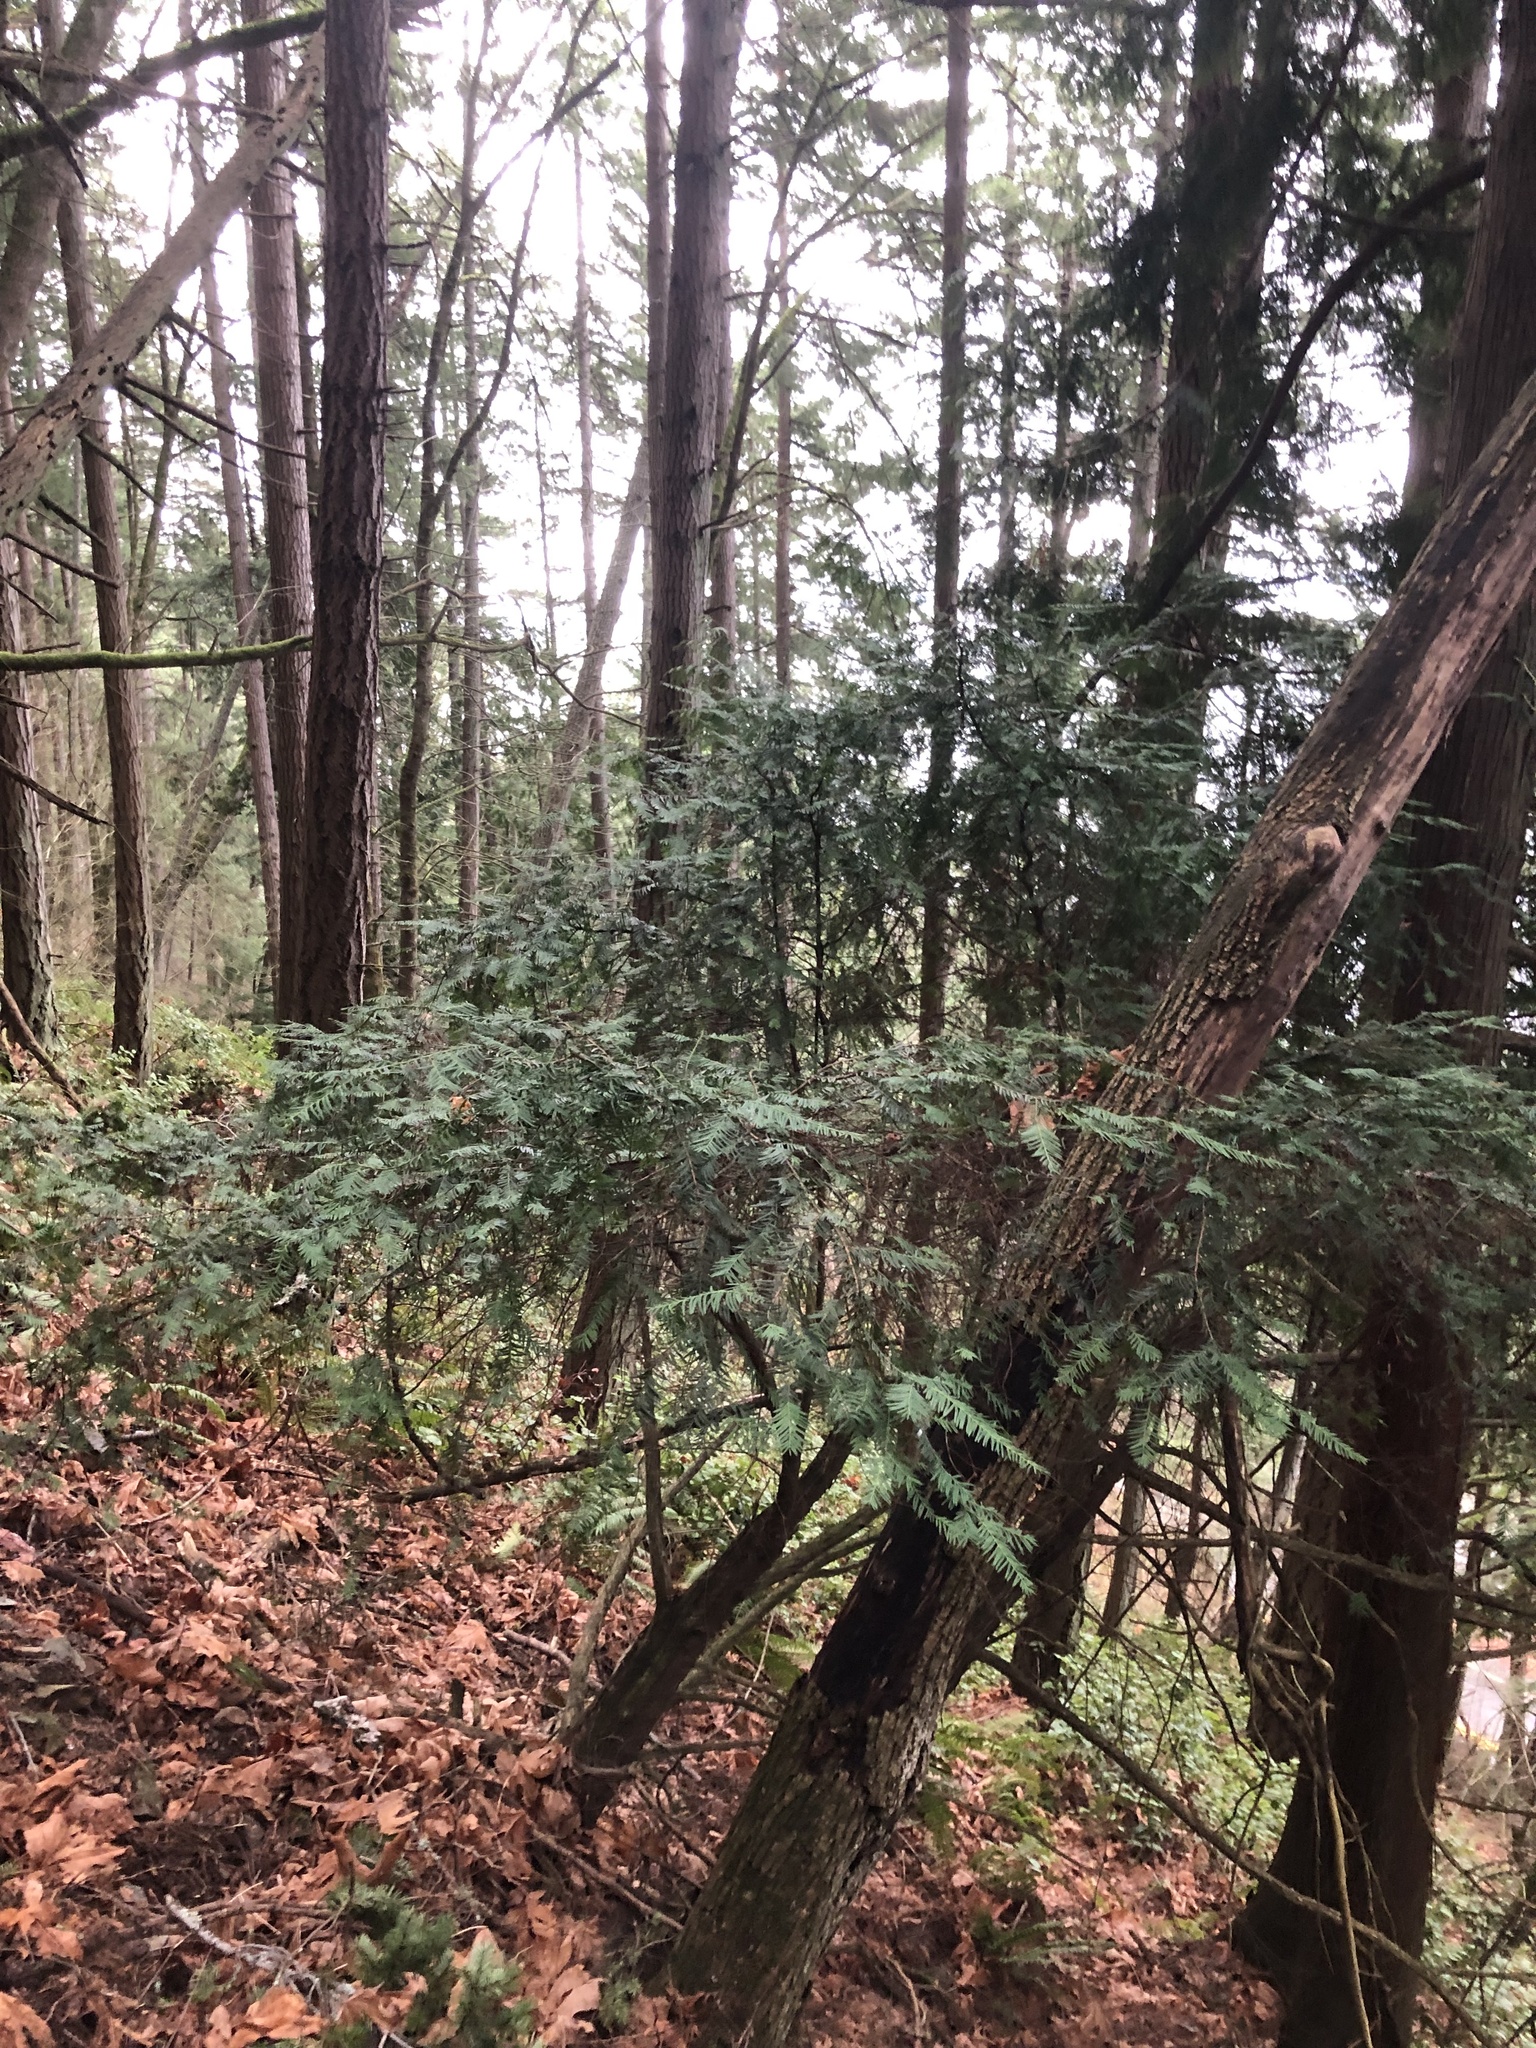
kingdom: Plantae
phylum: Tracheophyta
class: Pinopsida
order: Pinales
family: Taxaceae
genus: Taxus
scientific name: Taxus brevifolia
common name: Pacific yew
